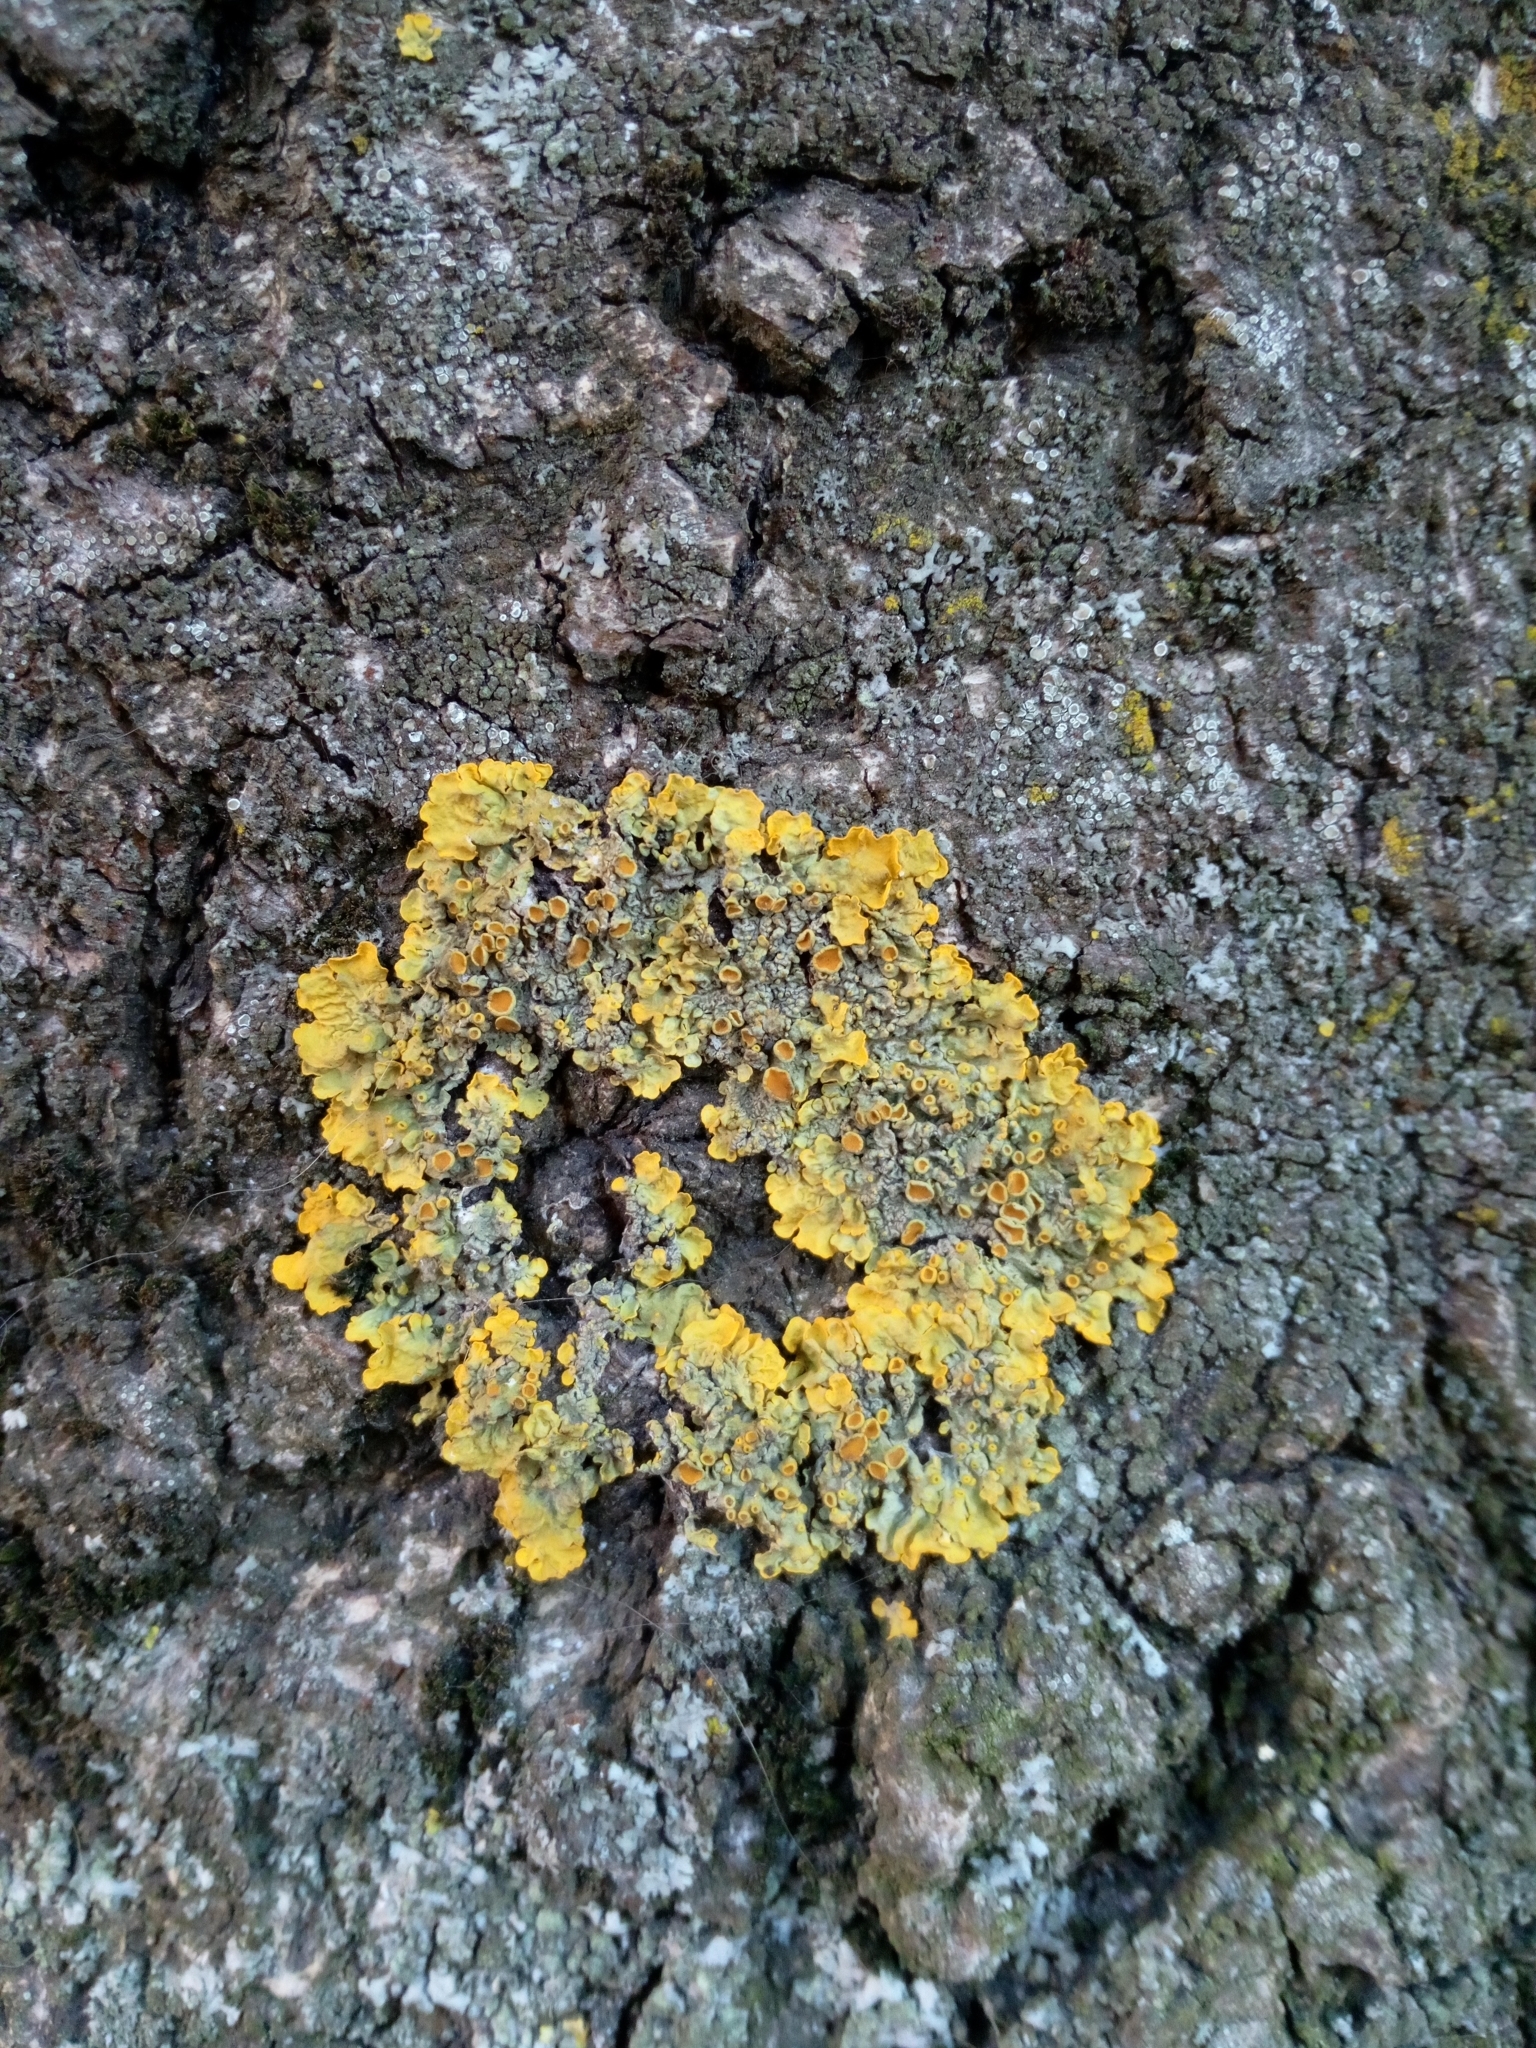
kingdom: Fungi
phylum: Ascomycota
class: Lecanoromycetes
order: Teloschistales
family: Teloschistaceae
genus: Xanthoria
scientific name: Xanthoria parietina
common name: Common orange lichen
